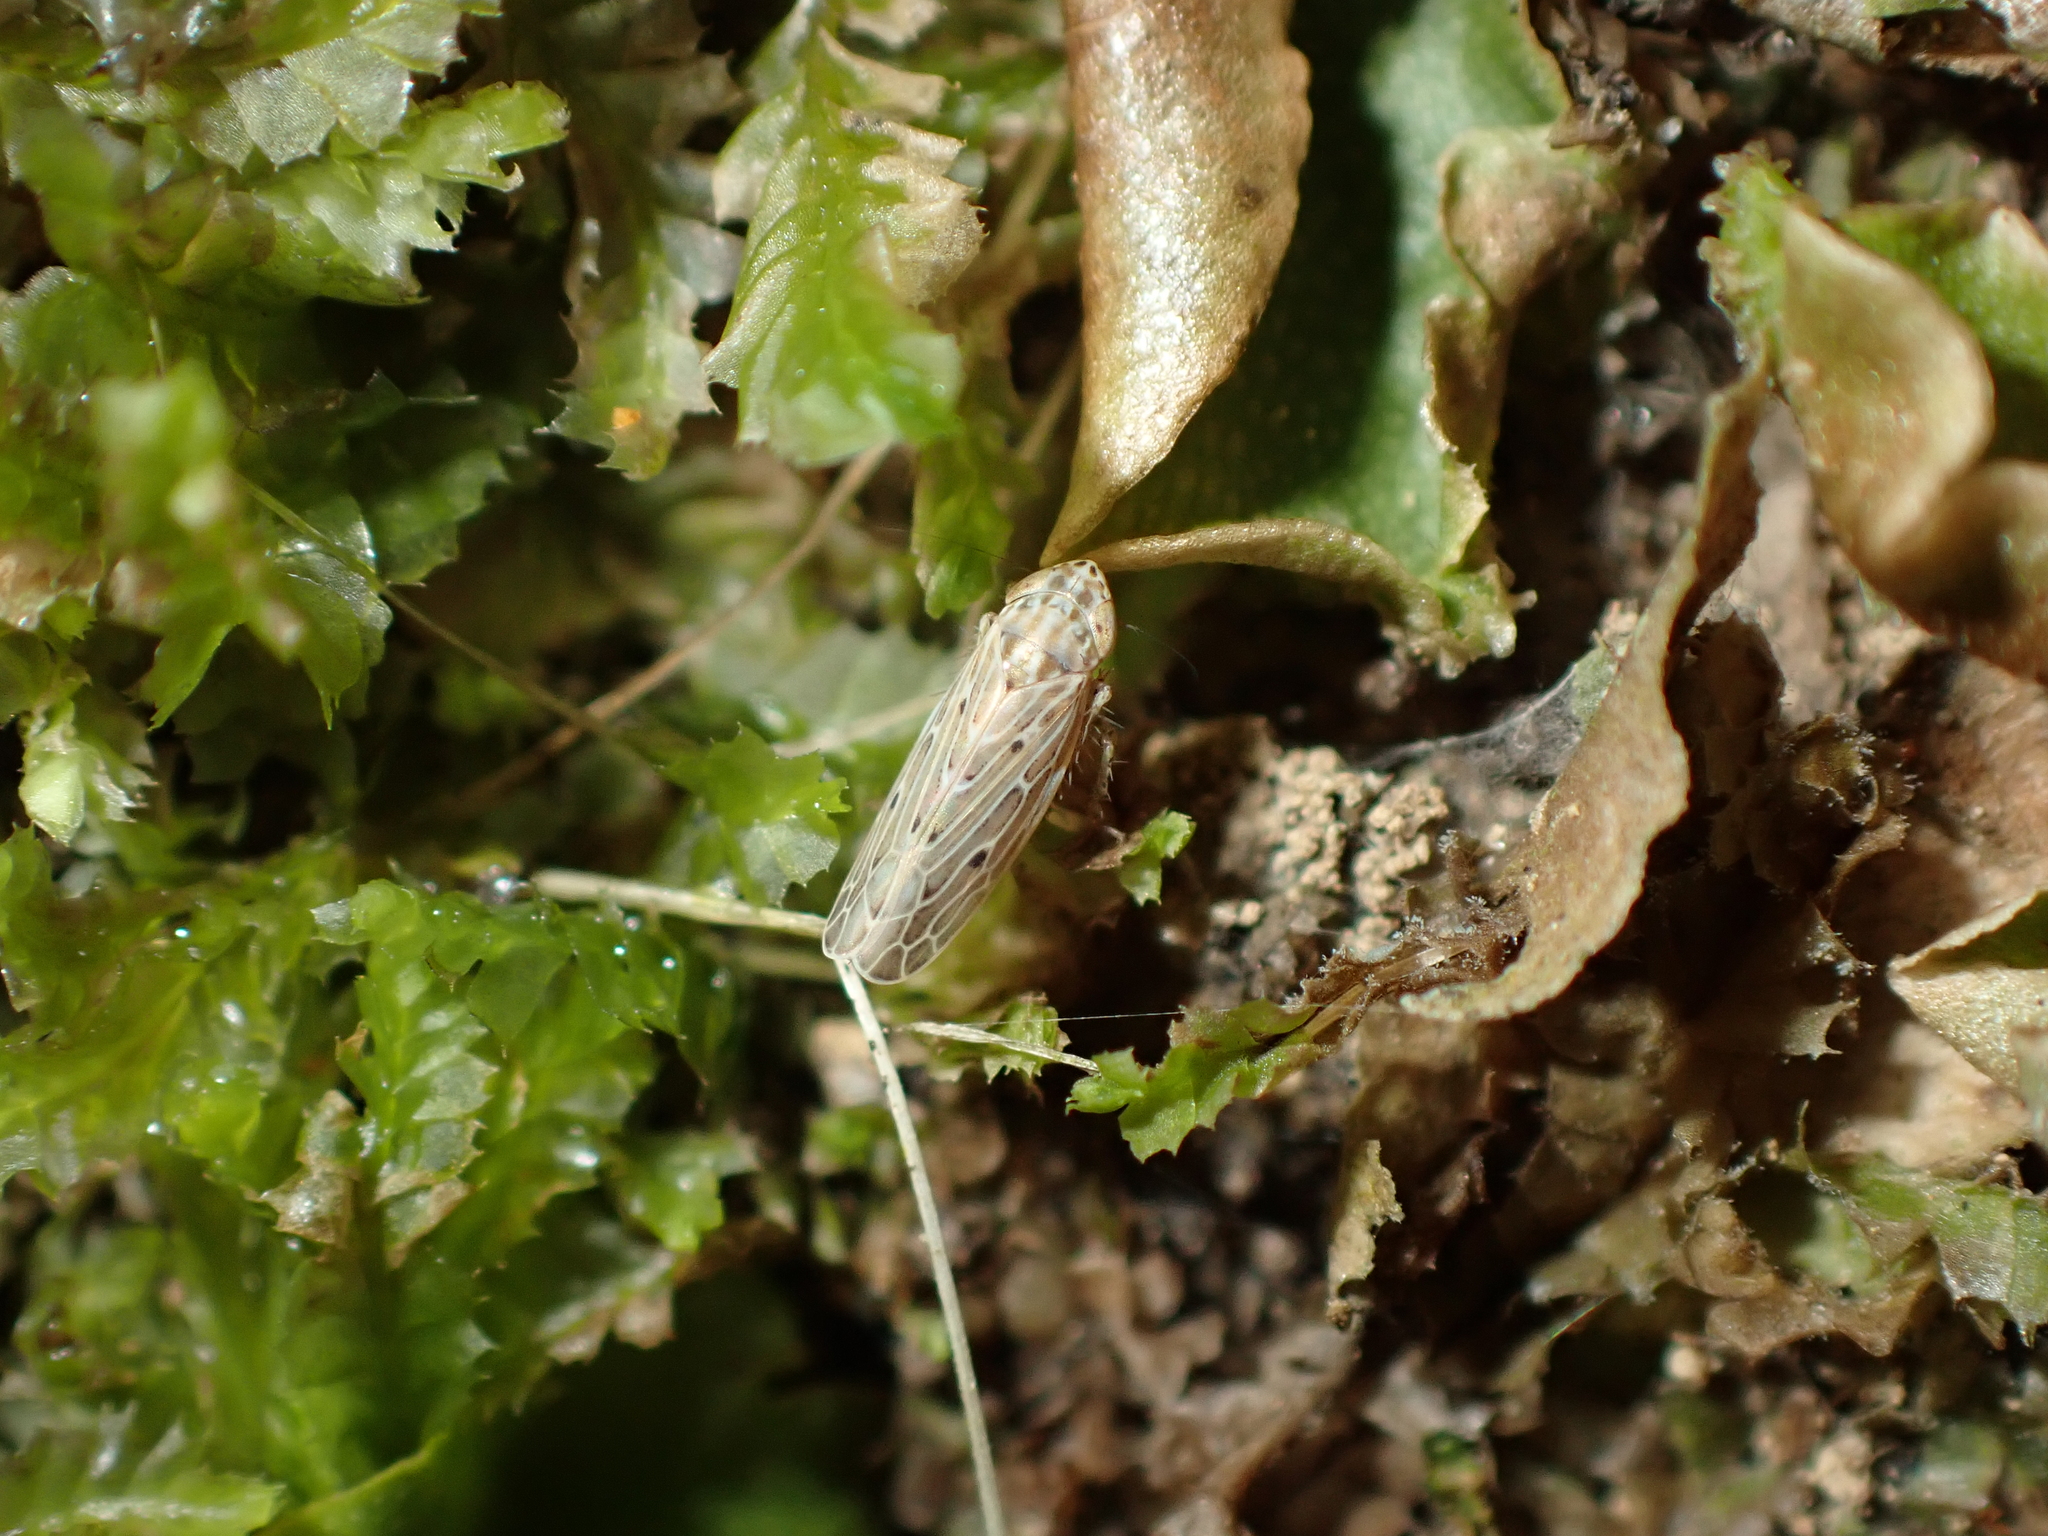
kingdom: Animalia
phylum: Arthropoda
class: Insecta
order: Hemiptera
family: Cicadellidae
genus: Maiestas
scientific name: Maiestas vetus
